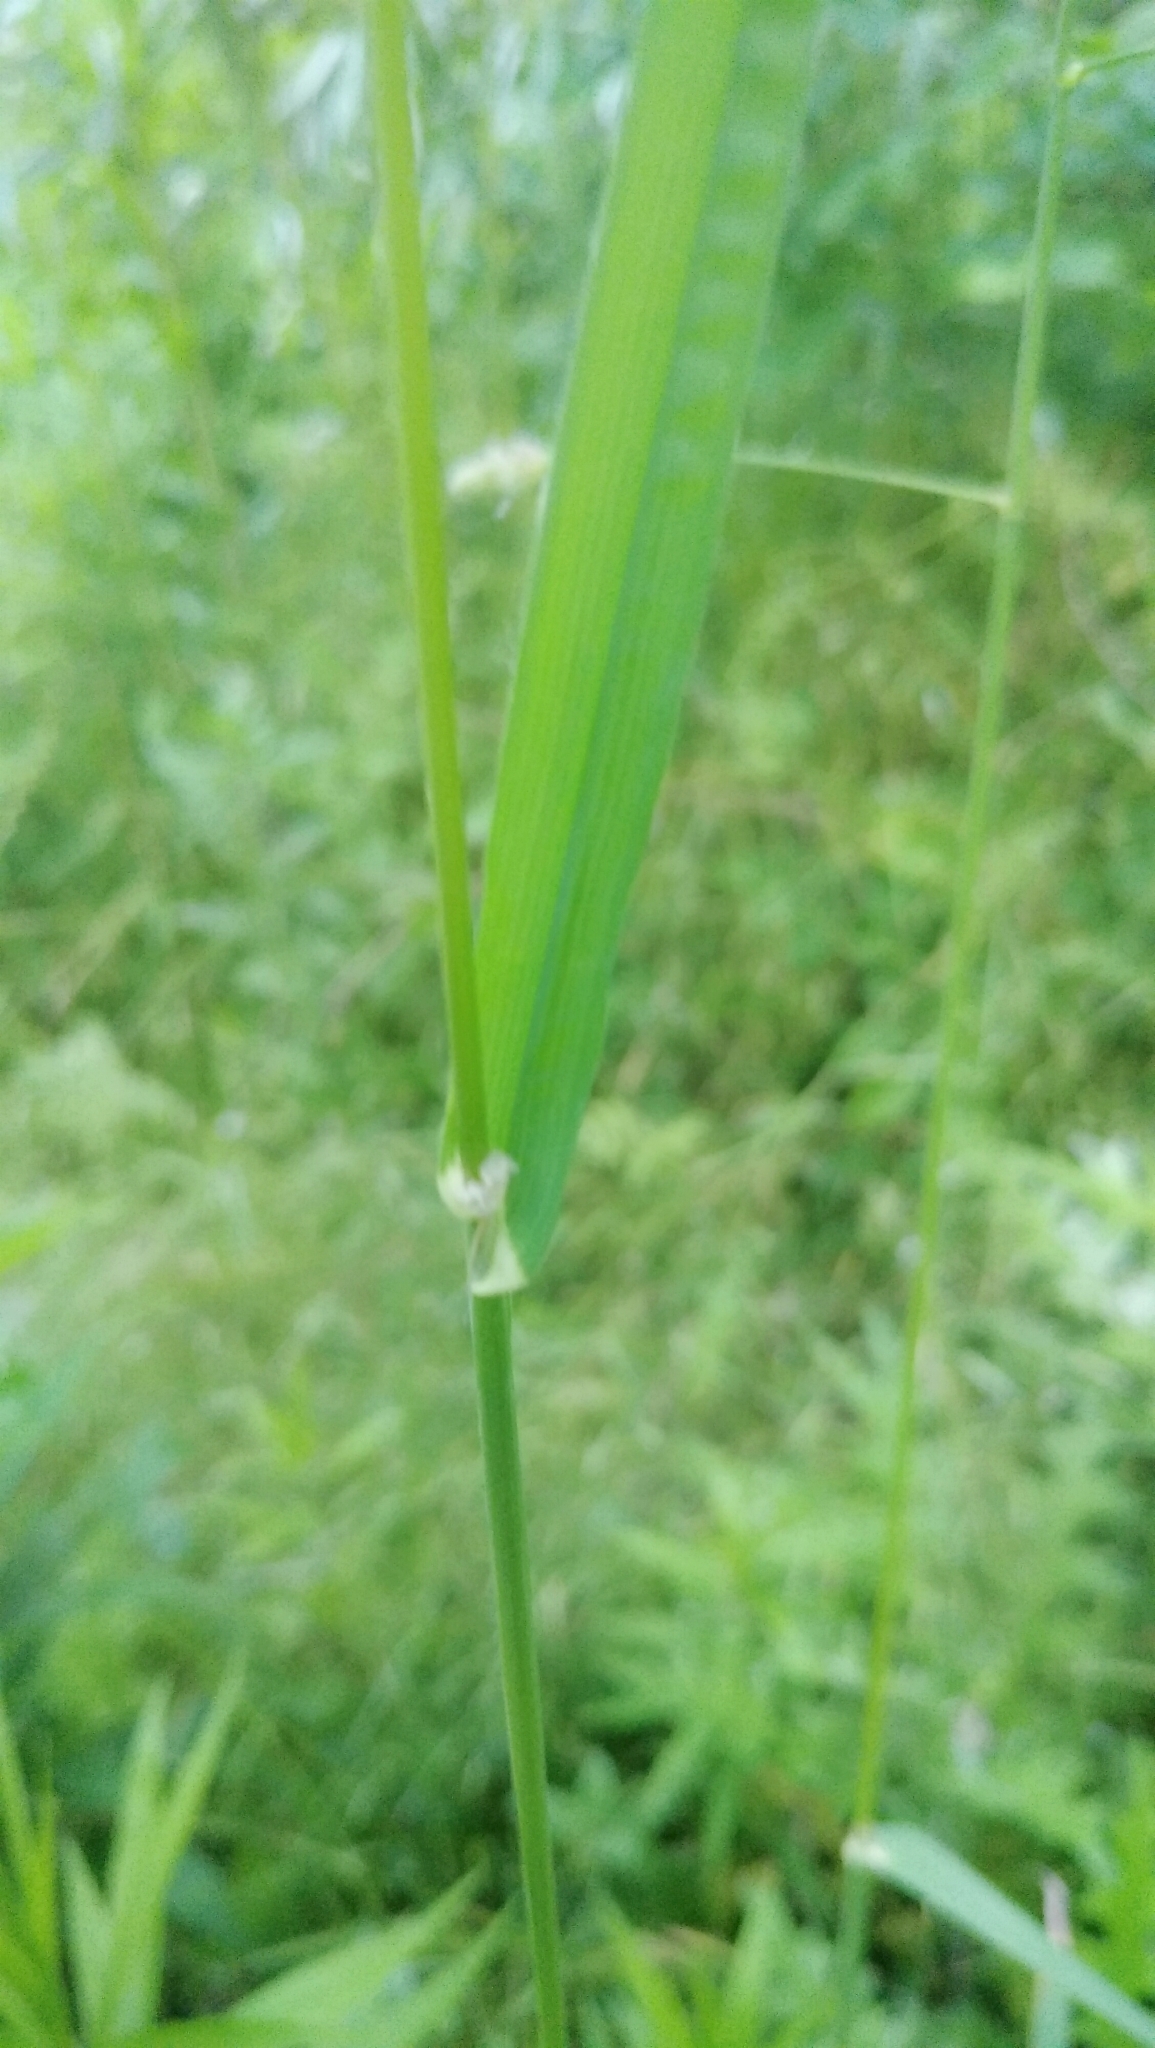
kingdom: Plantae
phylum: Tracheophyta
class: Liliopsida
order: Poales
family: Poaceae
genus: Dactylis
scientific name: Dactylis glomerata
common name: Orchardgrass
